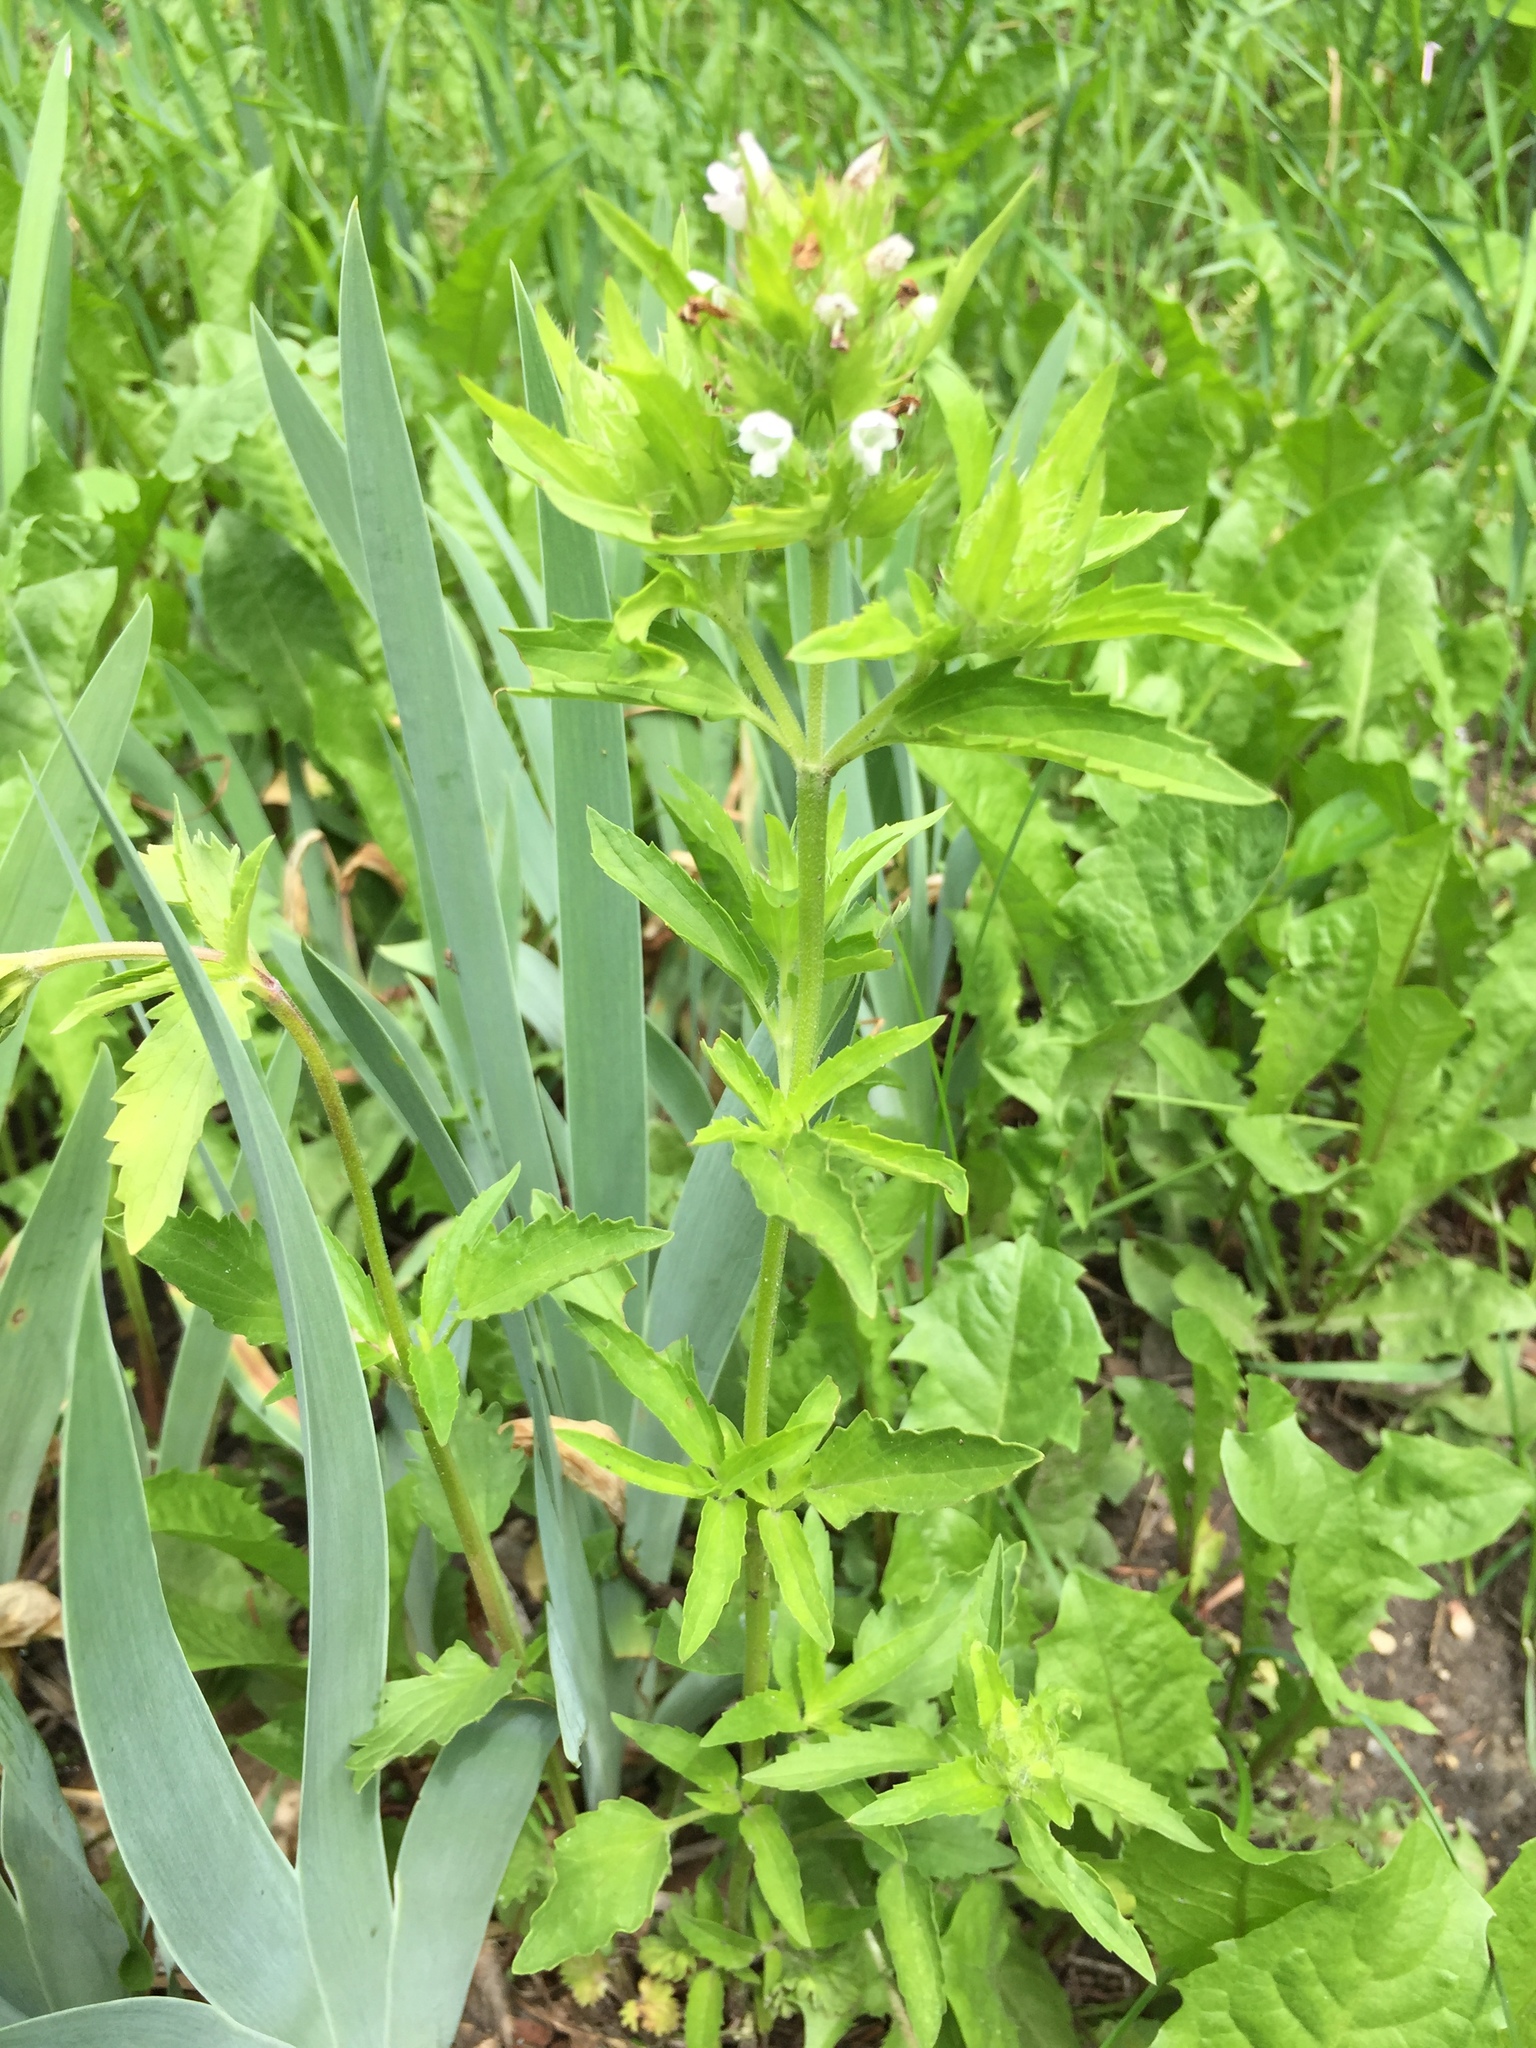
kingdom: Plantae
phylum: Tracheophyta
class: Magnoliopsida
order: Lamiales
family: Lamiaceae
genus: Dracocephalum
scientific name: Dracocephalum parviflorum
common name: American dragonhead
